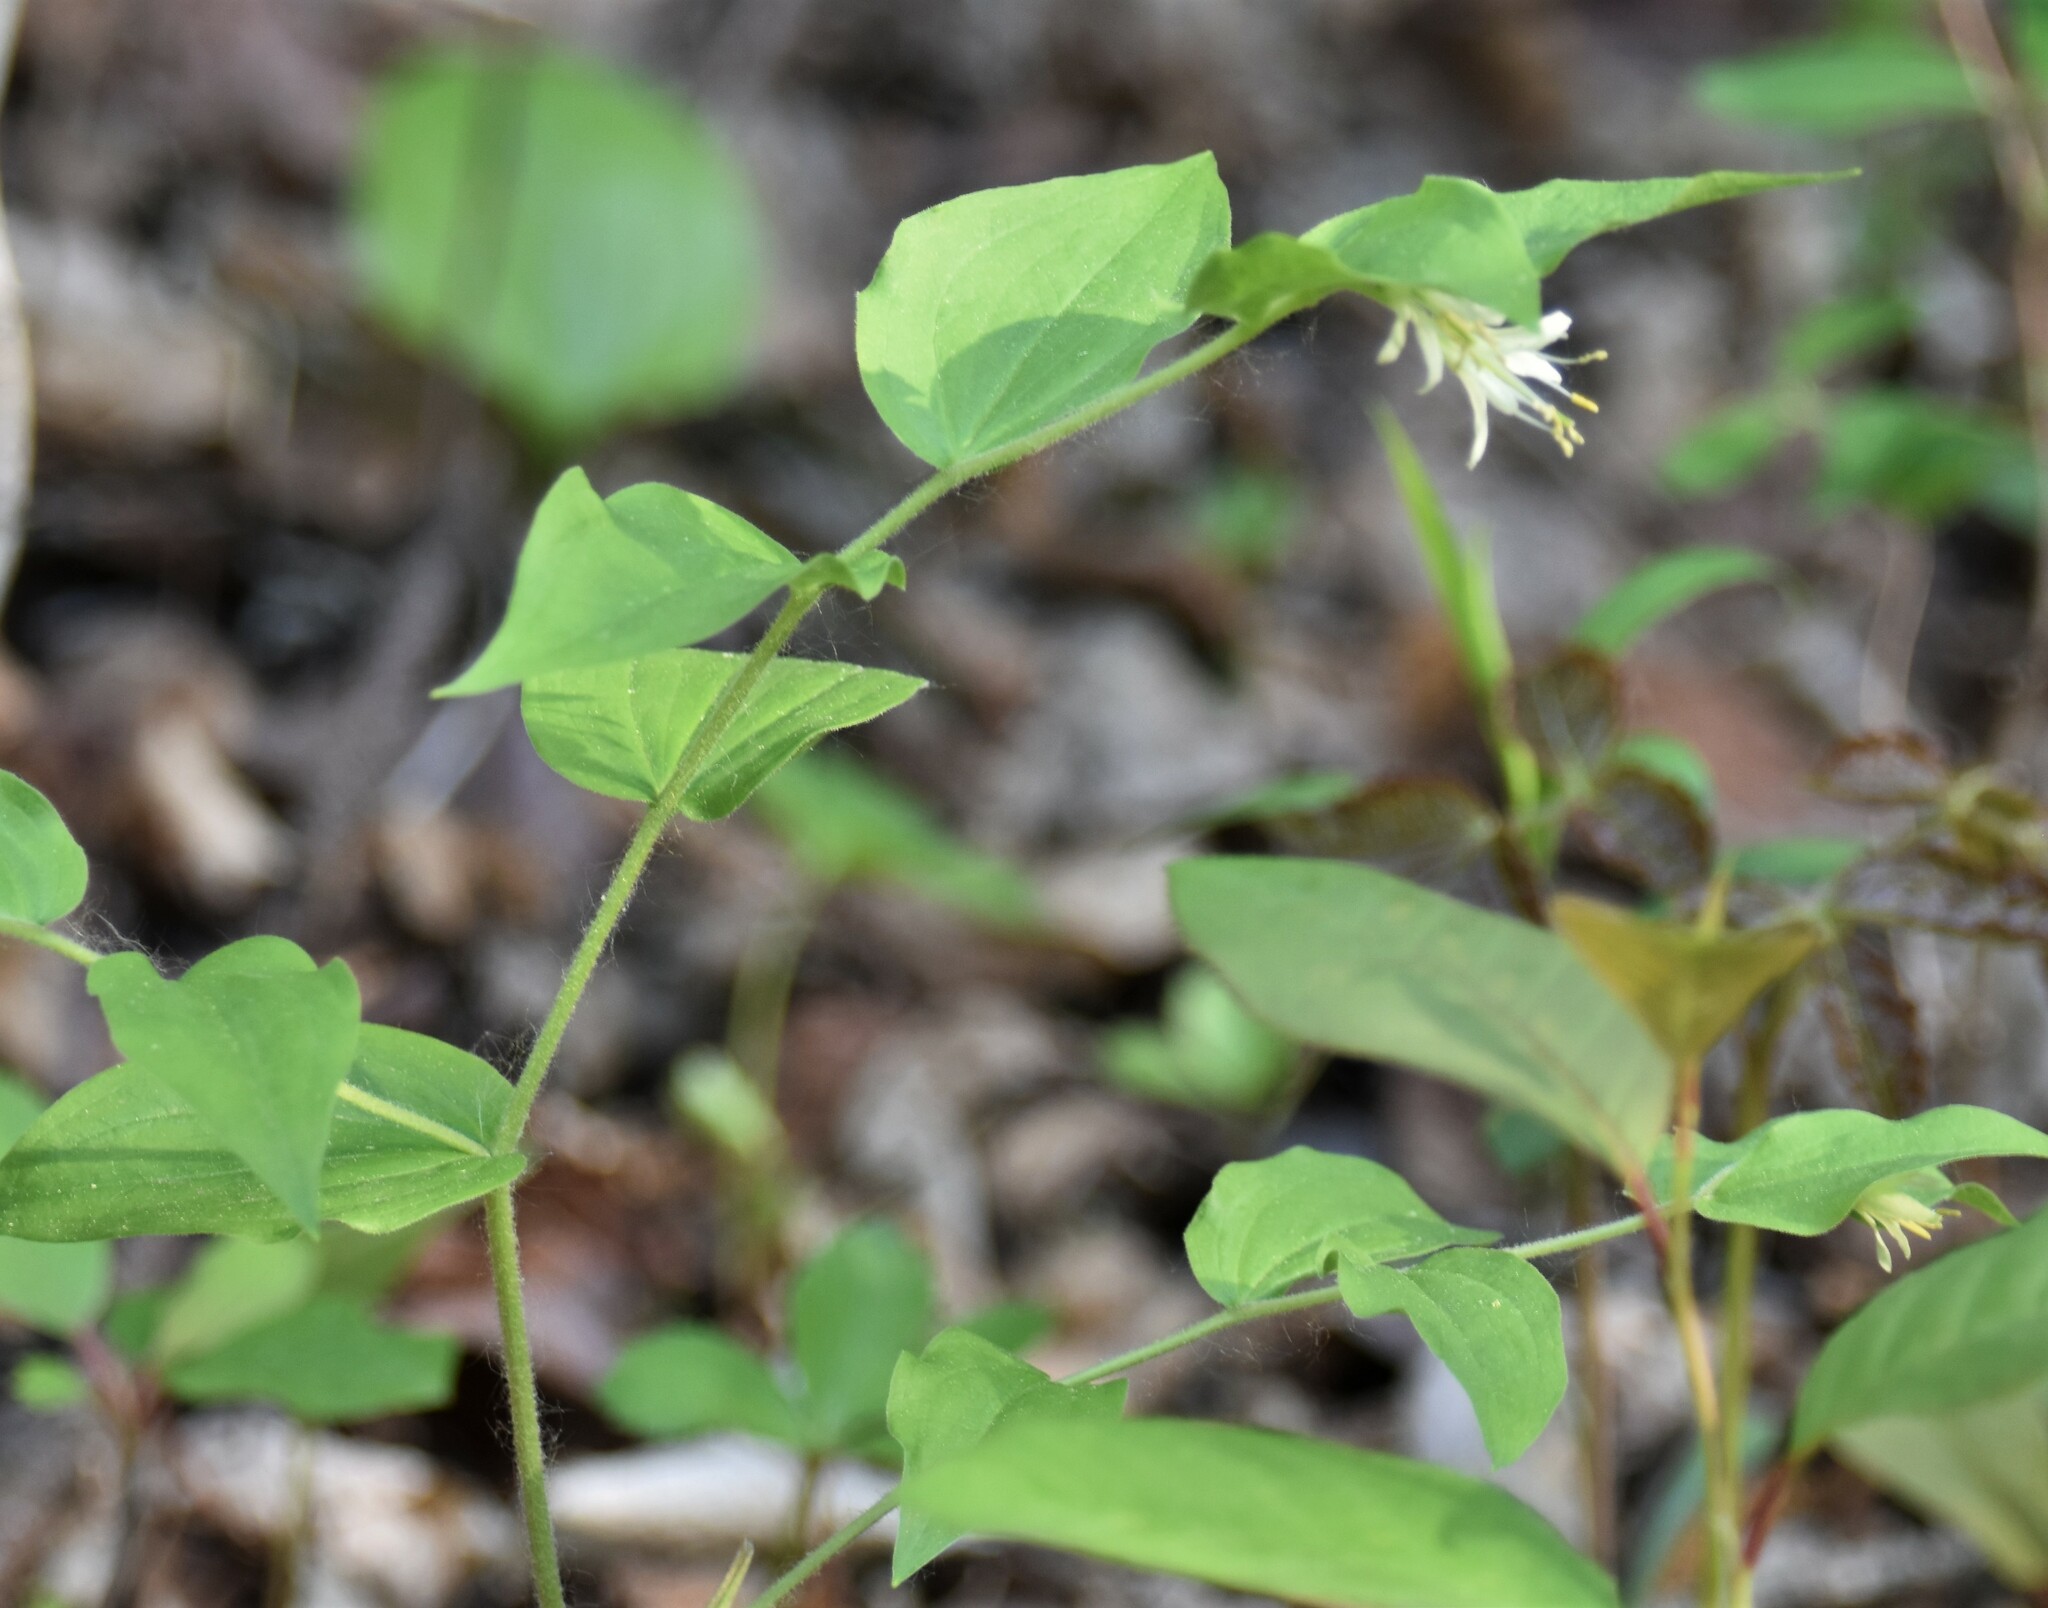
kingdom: Plantae
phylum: Tracheophyta
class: Liliopsida
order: Liliales
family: Liliaceae
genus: Prosartes
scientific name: Prosartes trachycarpa
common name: Rough-fruit fairy-bells
